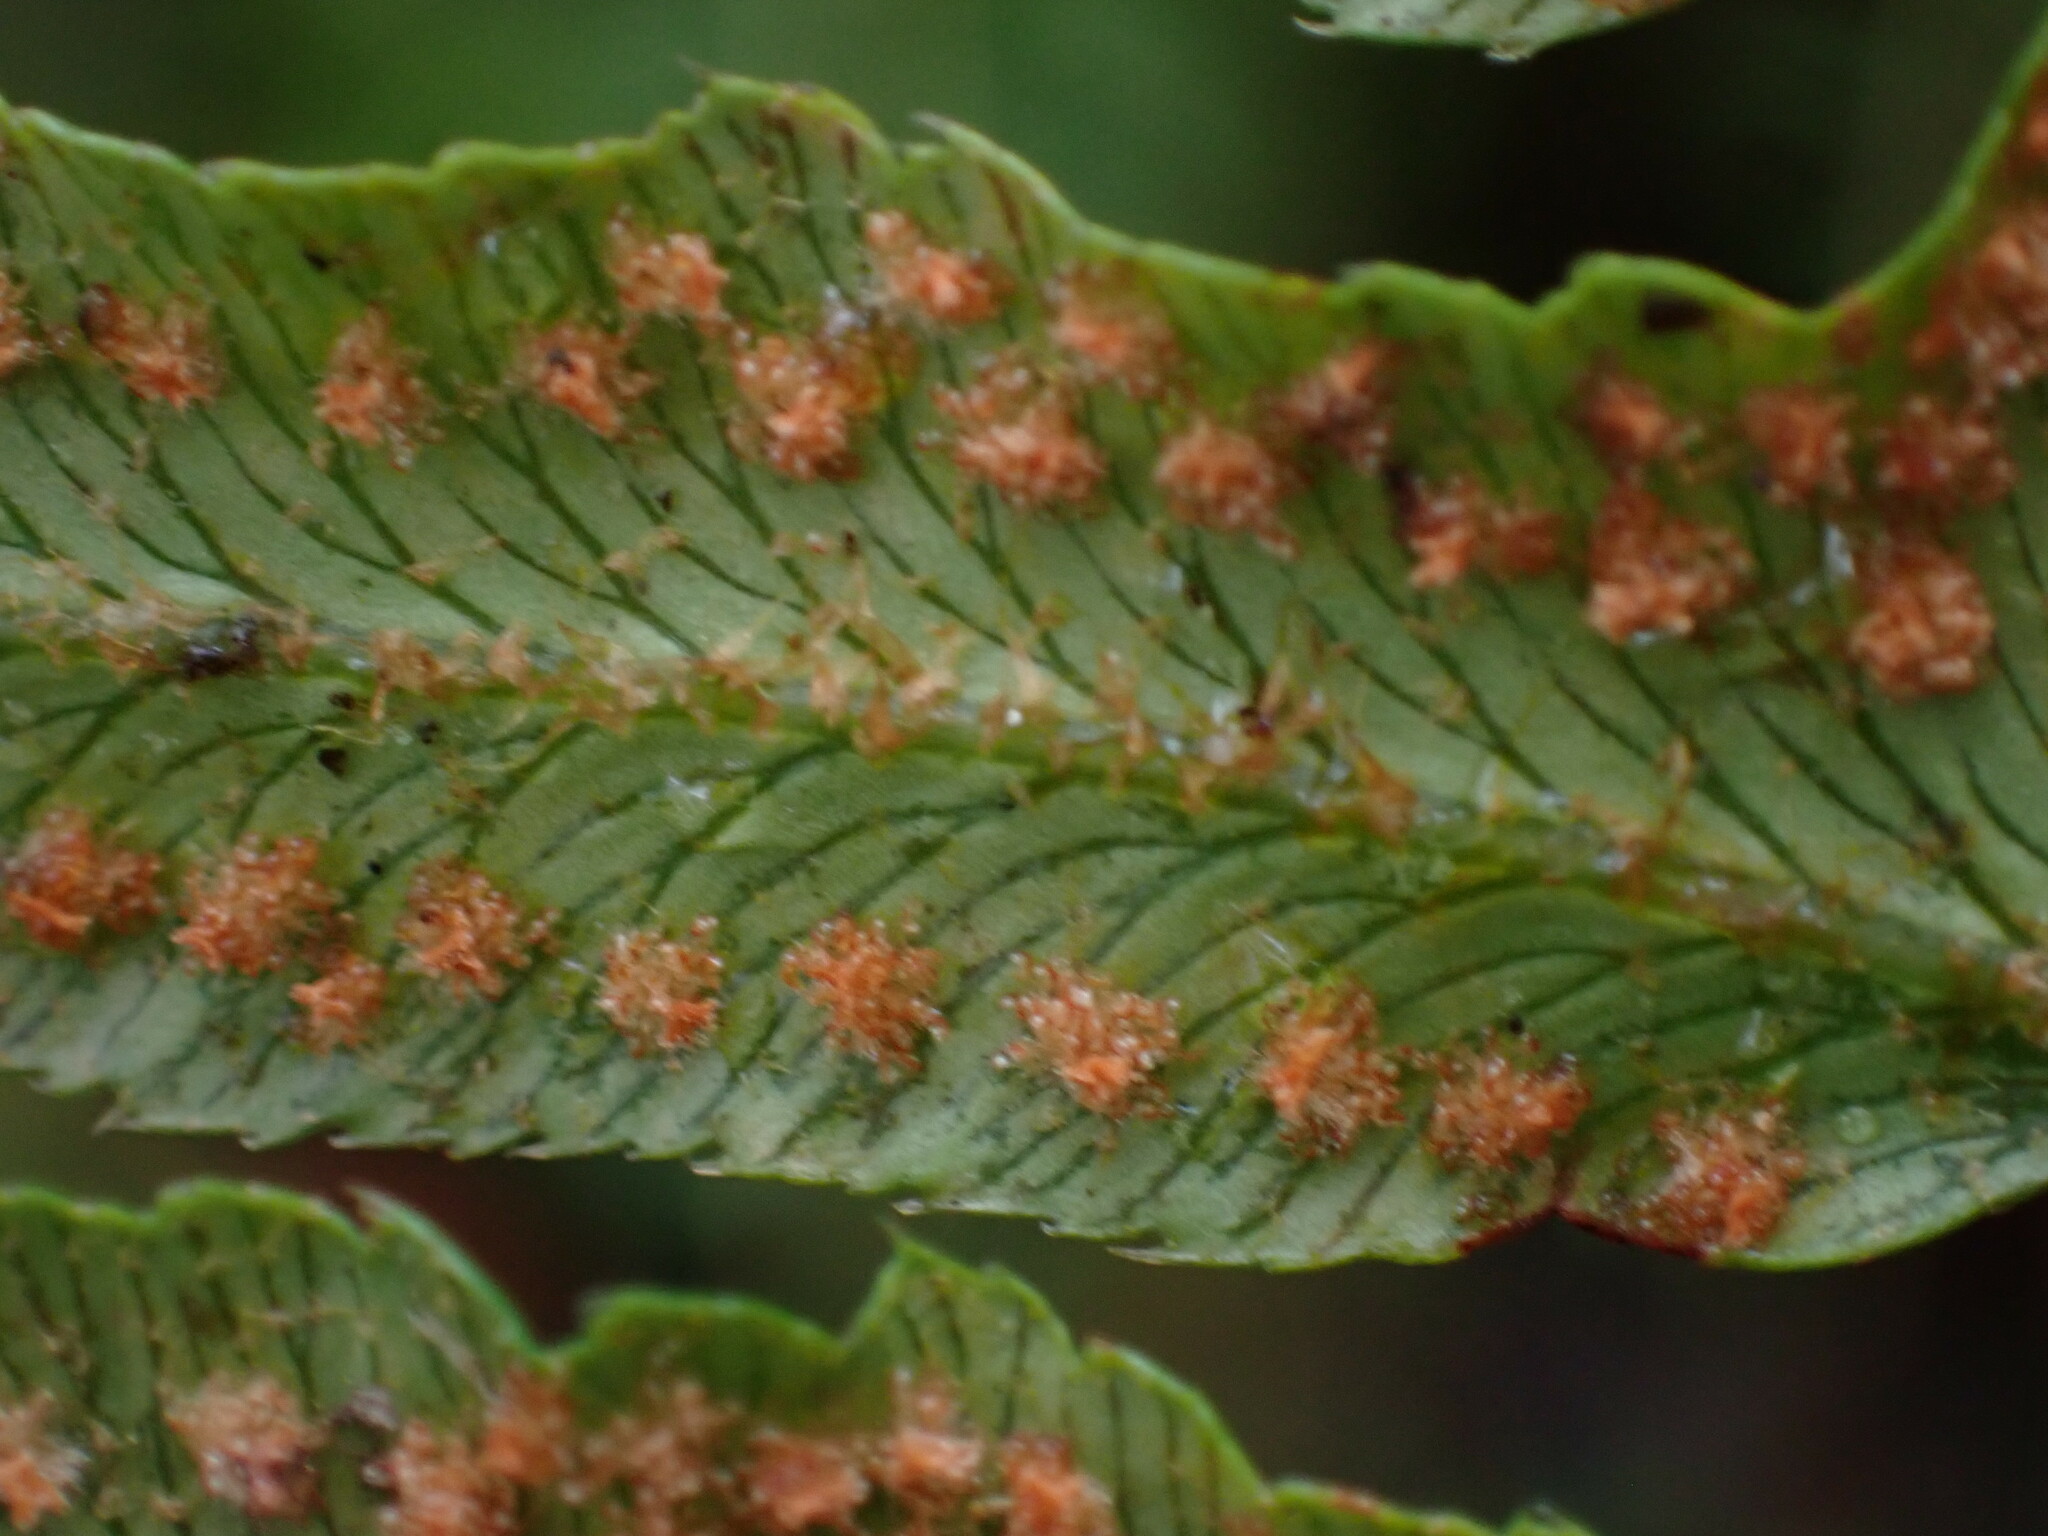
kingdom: Plantae
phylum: Tracheophyta
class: Polypodiopsida
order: Polypodiales
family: Dryopteridaceae
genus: Polystichum
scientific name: Polystichum munitum
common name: Western sword-fern
